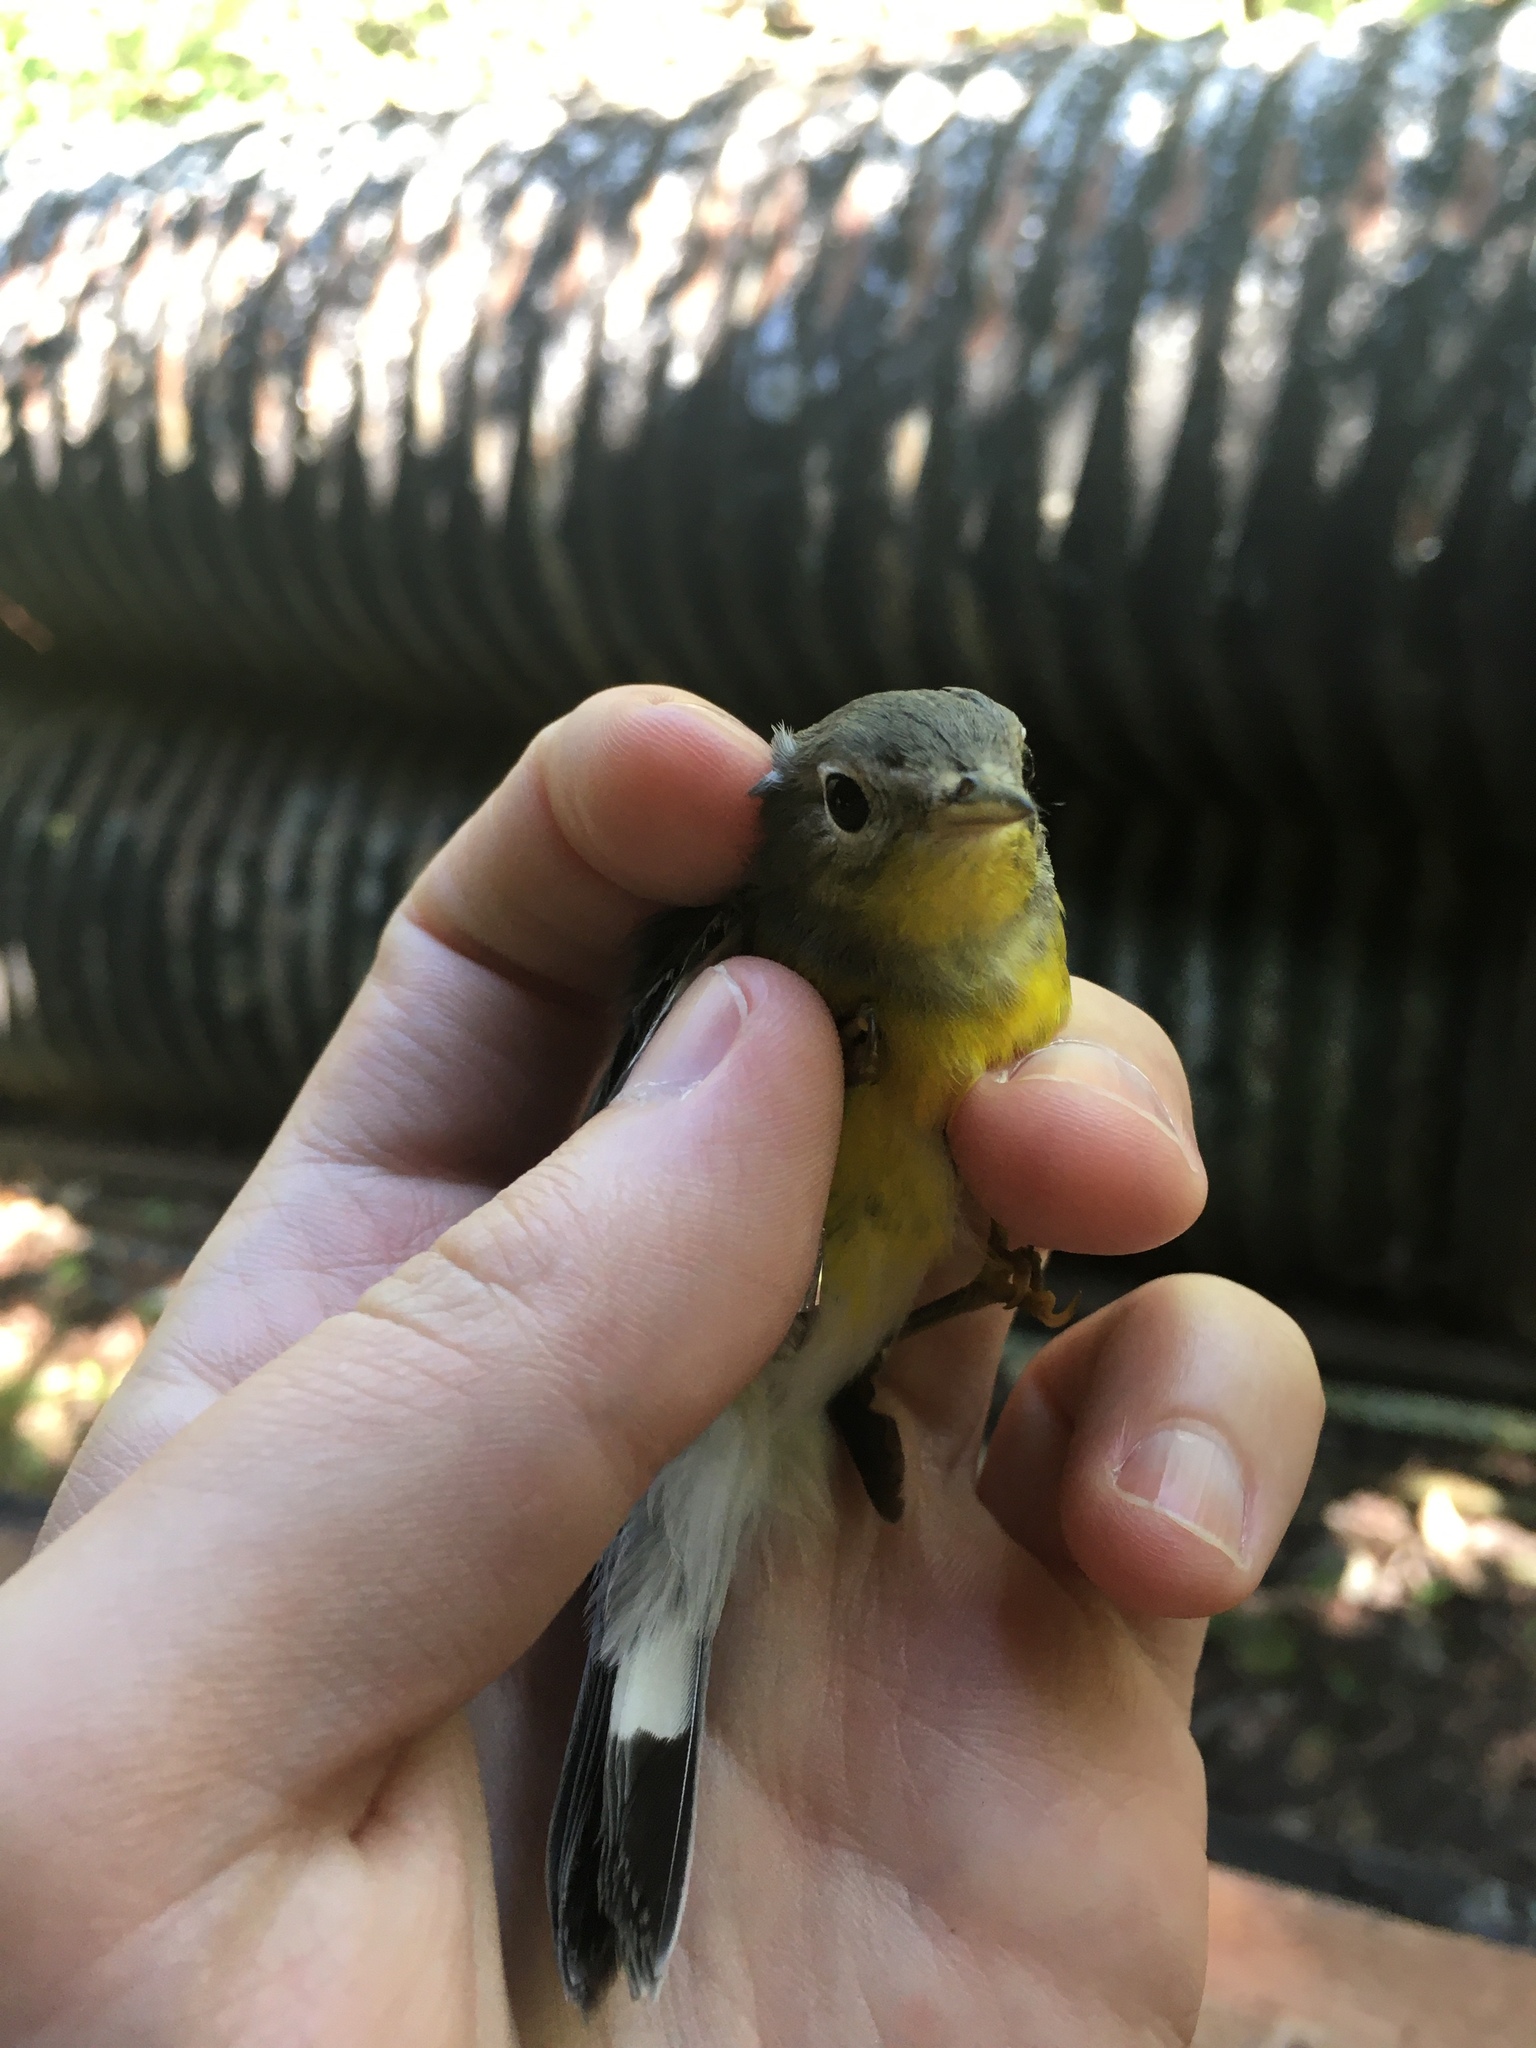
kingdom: Animalia
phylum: Chordata
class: Aves
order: Passeriformes
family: Parulidae
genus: Setophaga
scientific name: Setophaga magnolia
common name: Magnolia warbler
